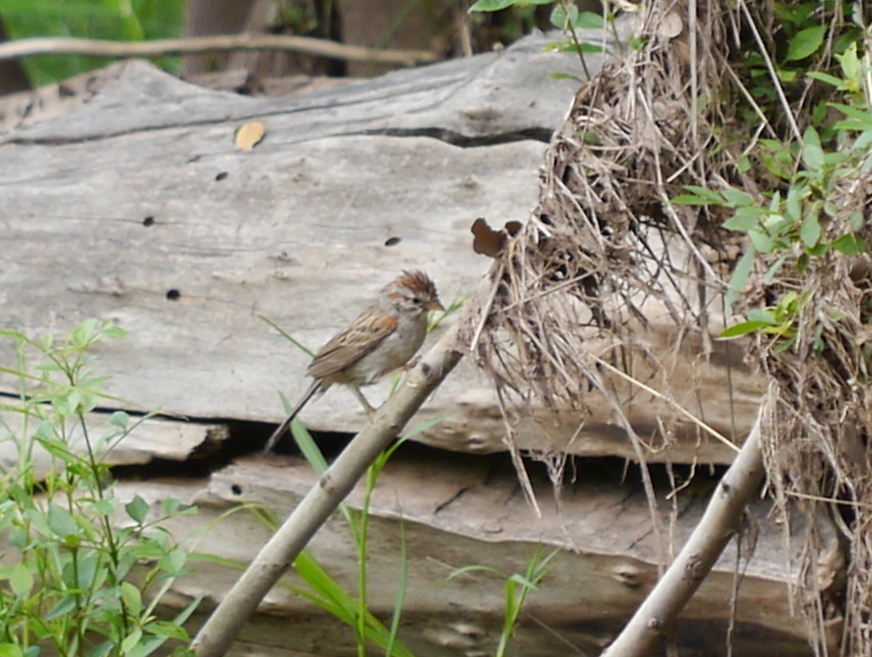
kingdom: Animalia
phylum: Chordata
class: Aves
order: Passeriformes
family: Passerellidae
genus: Peucaea
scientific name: Peucaea carpalis
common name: Rufous-winged sparrow
